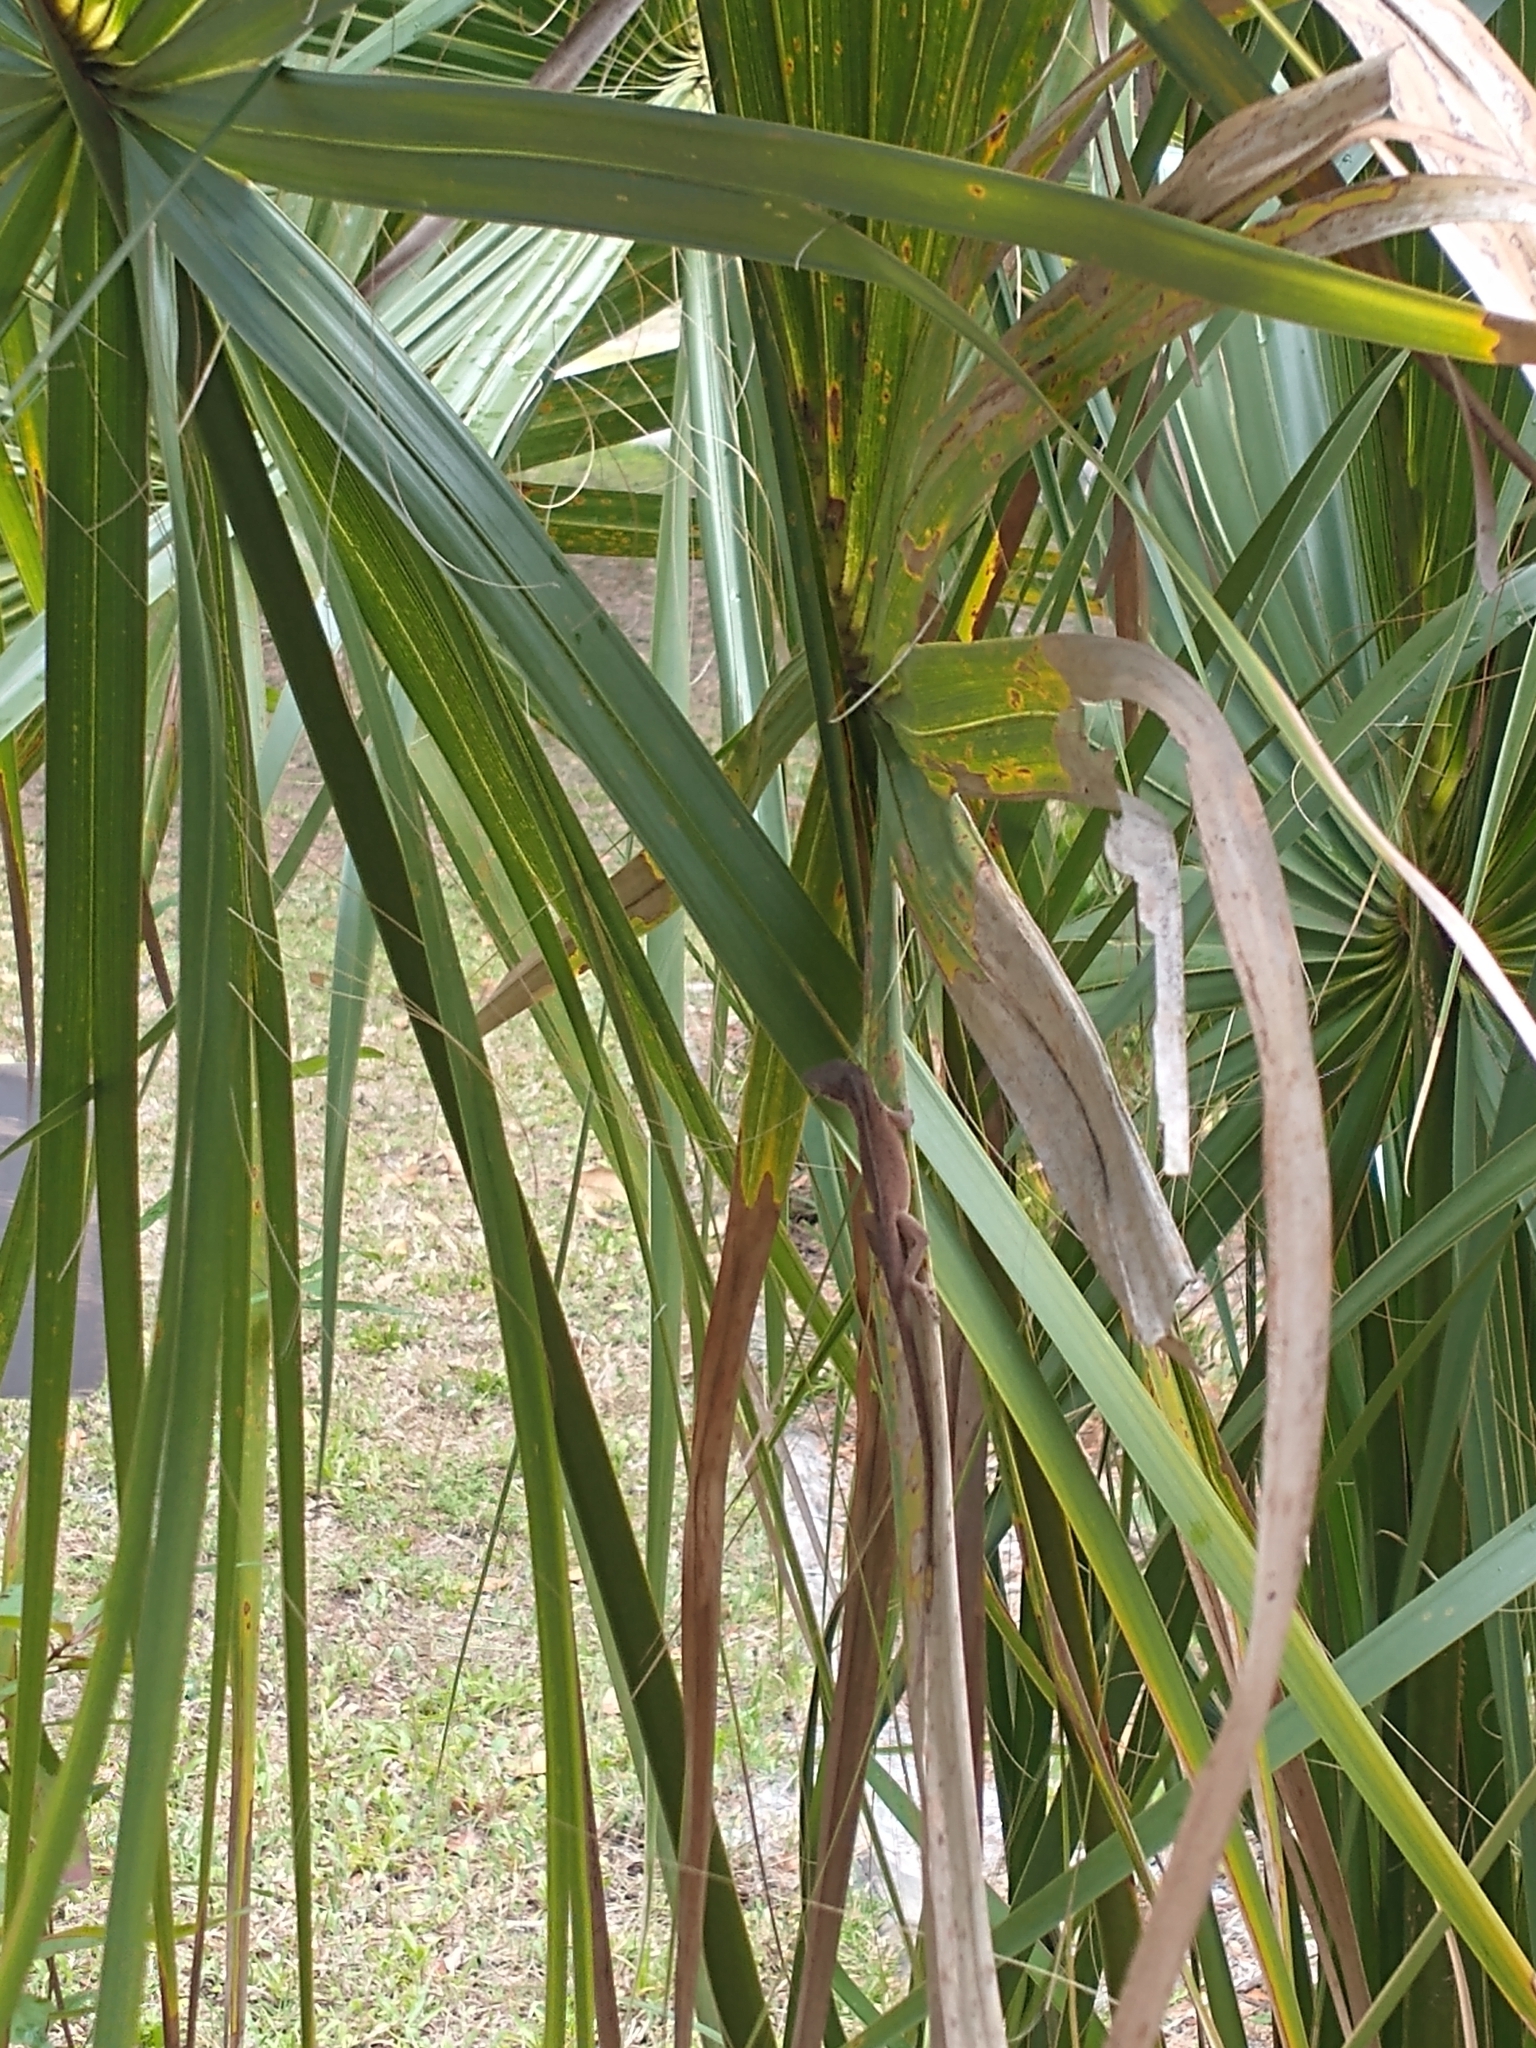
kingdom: Animalia
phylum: Chordata
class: Squamata
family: Dactyloidae
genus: Anolis
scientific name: Anolis carolinensis
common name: Green anole
